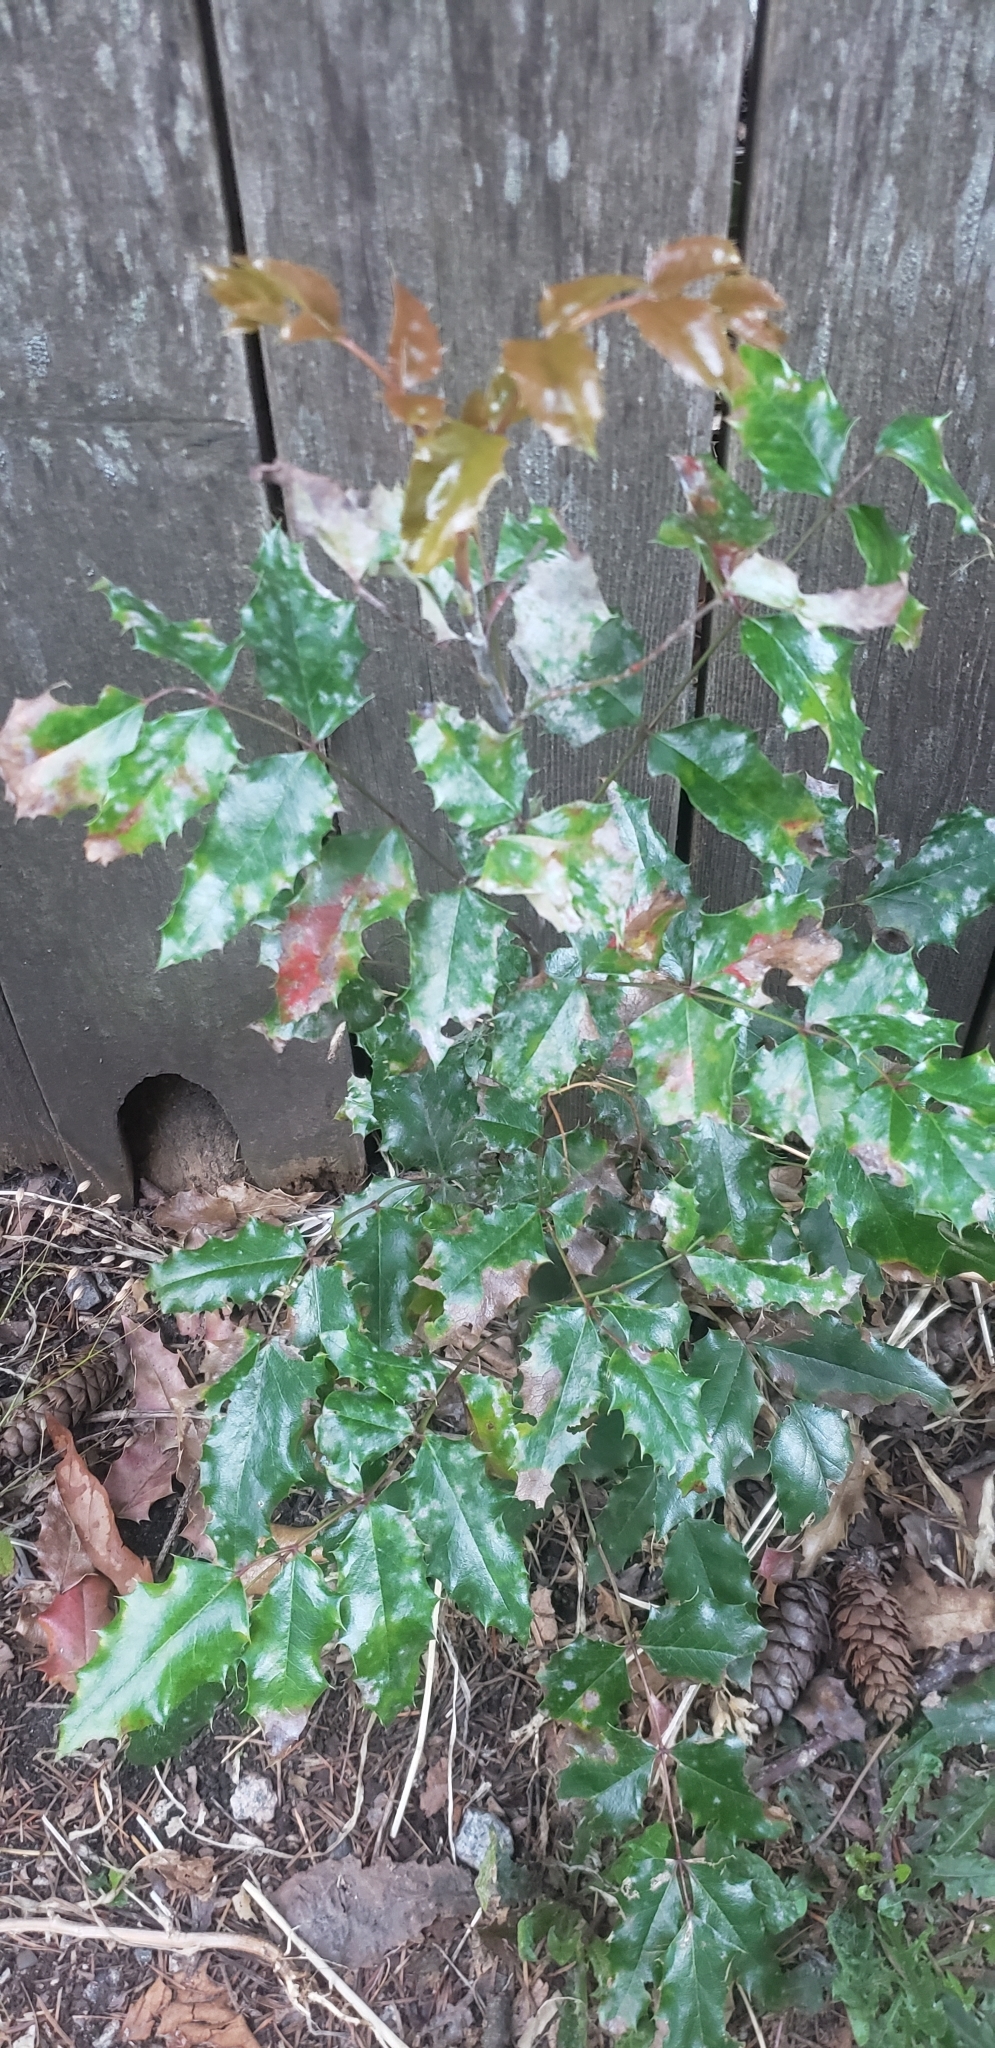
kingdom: Plantae
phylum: Tracheophyta
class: Magnoliopsida
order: Ranunculales
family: Berberidaceae
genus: Mahonia
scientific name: Mahonia aquifolium
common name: Oregon-grape
